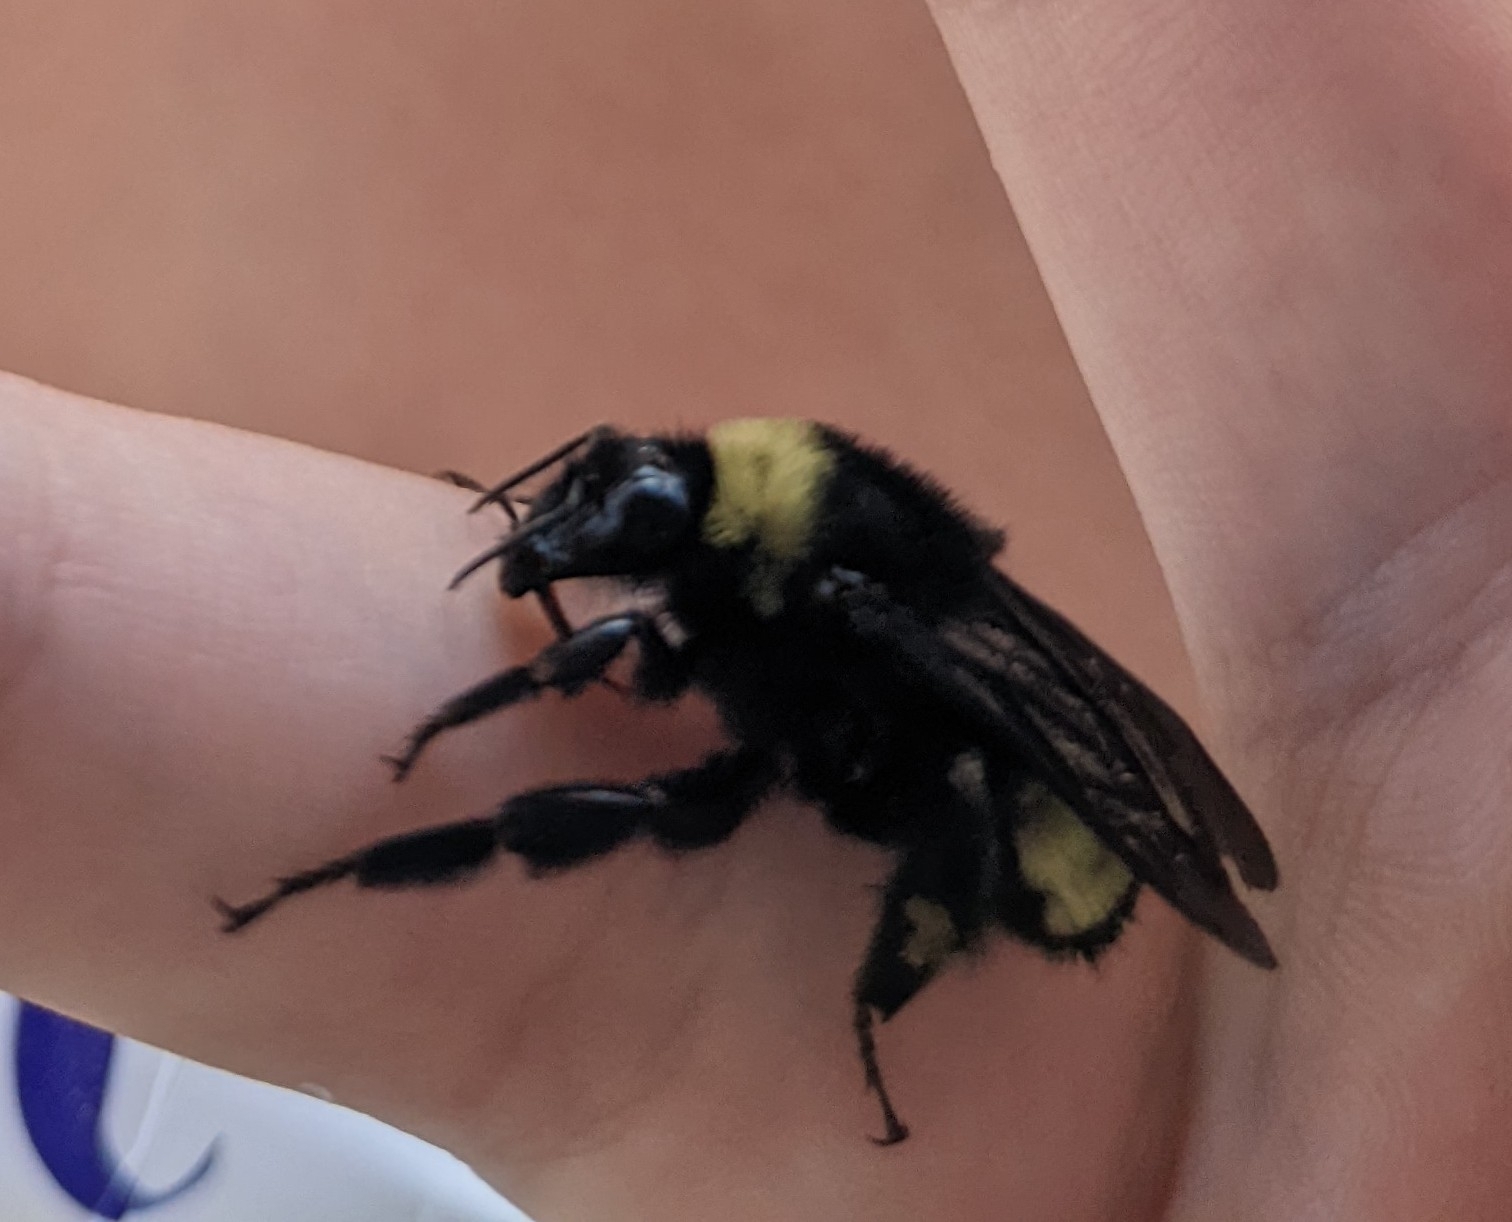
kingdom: Animalia
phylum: Arthropoda
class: Insecta
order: Hymenoptera
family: Apidae
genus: Bombus
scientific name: Bombus pensylvanicus
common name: Bumble bee
